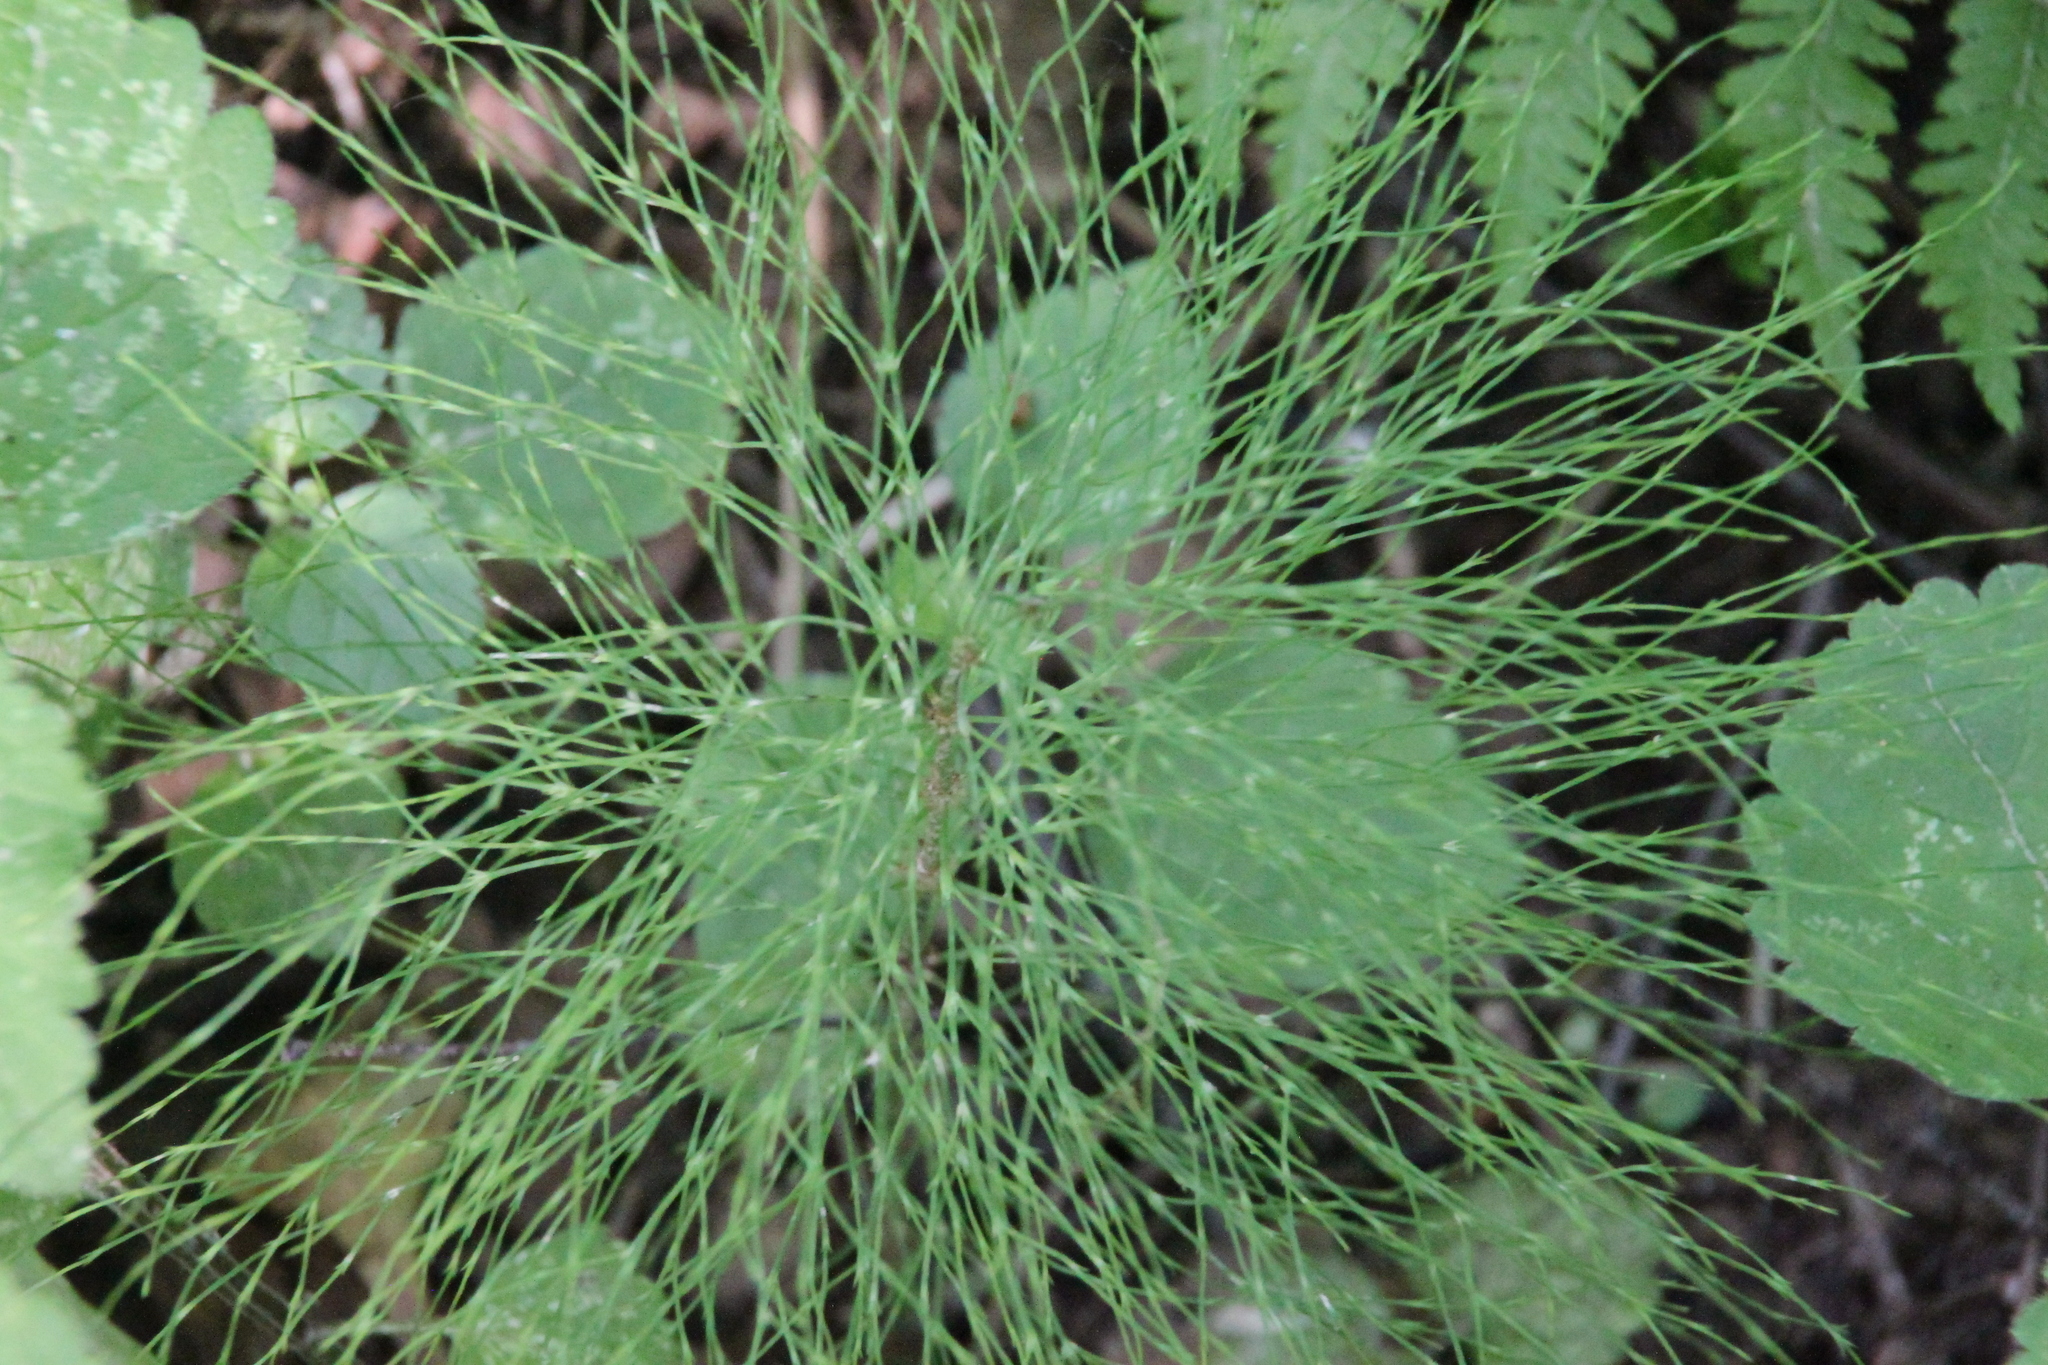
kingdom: Plantae
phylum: Tracheophyta
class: Polypodiopsida
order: Equisetales
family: Equisetaceae
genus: Equisetum
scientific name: Equisetum sylvaticum
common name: Wood horsetail
